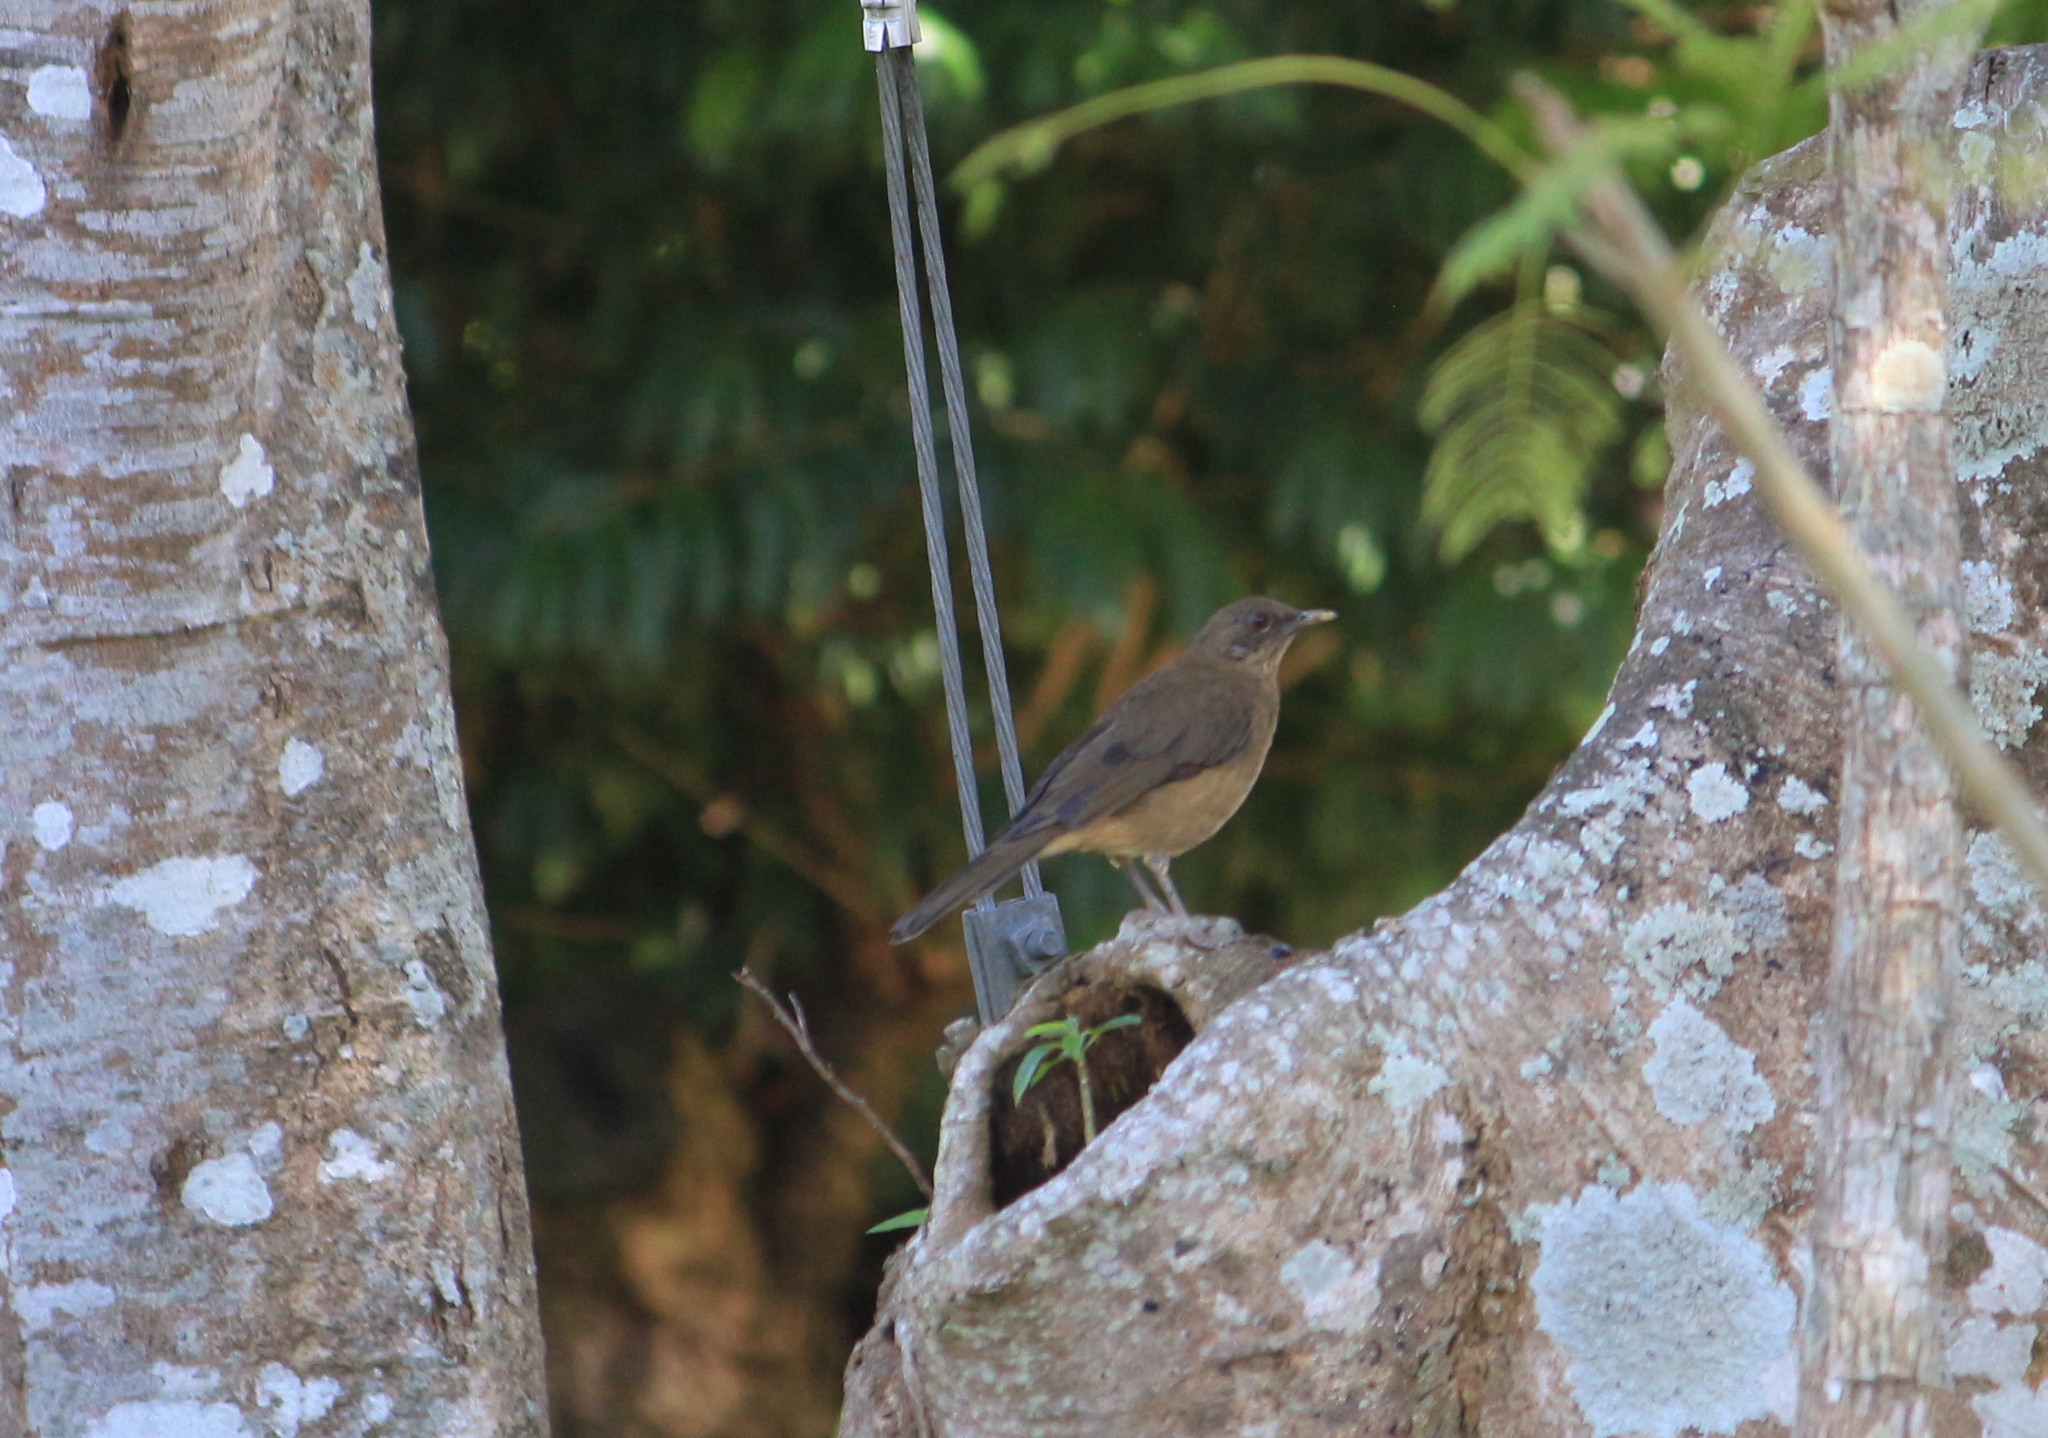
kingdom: Animalia
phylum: Chordata
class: Aves
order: Passeriformes
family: Turdidae
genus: Turdus
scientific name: Turdus grayi
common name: Clay-colored thrush
